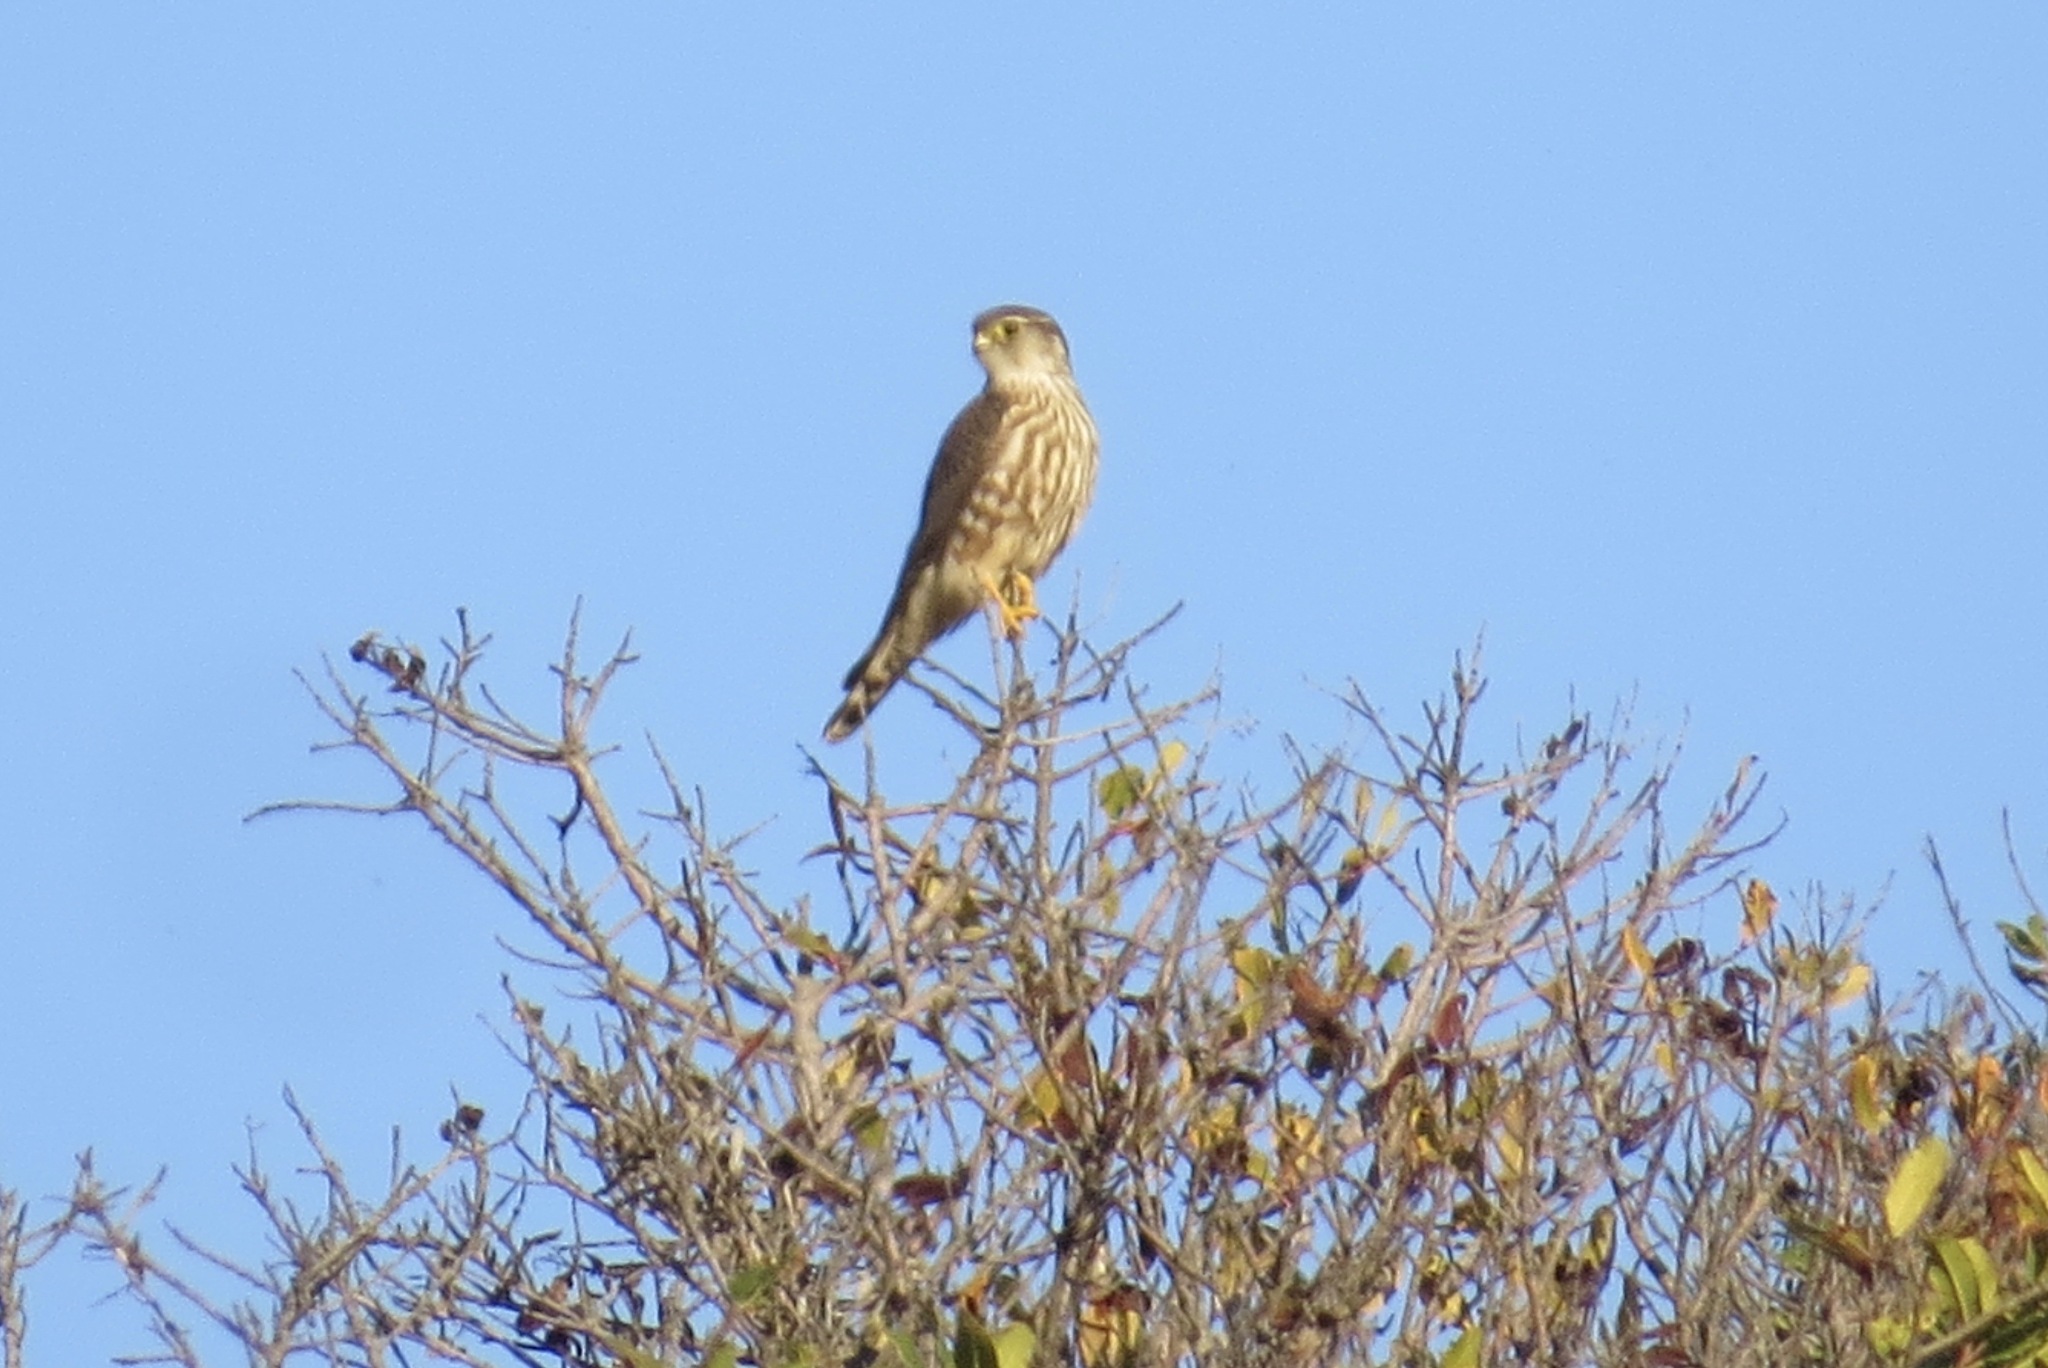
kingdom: Animalia
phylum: Chordata
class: Aves
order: Falconiformes
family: Falconidae
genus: Falco
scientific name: Falco columbarius
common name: Merlin
